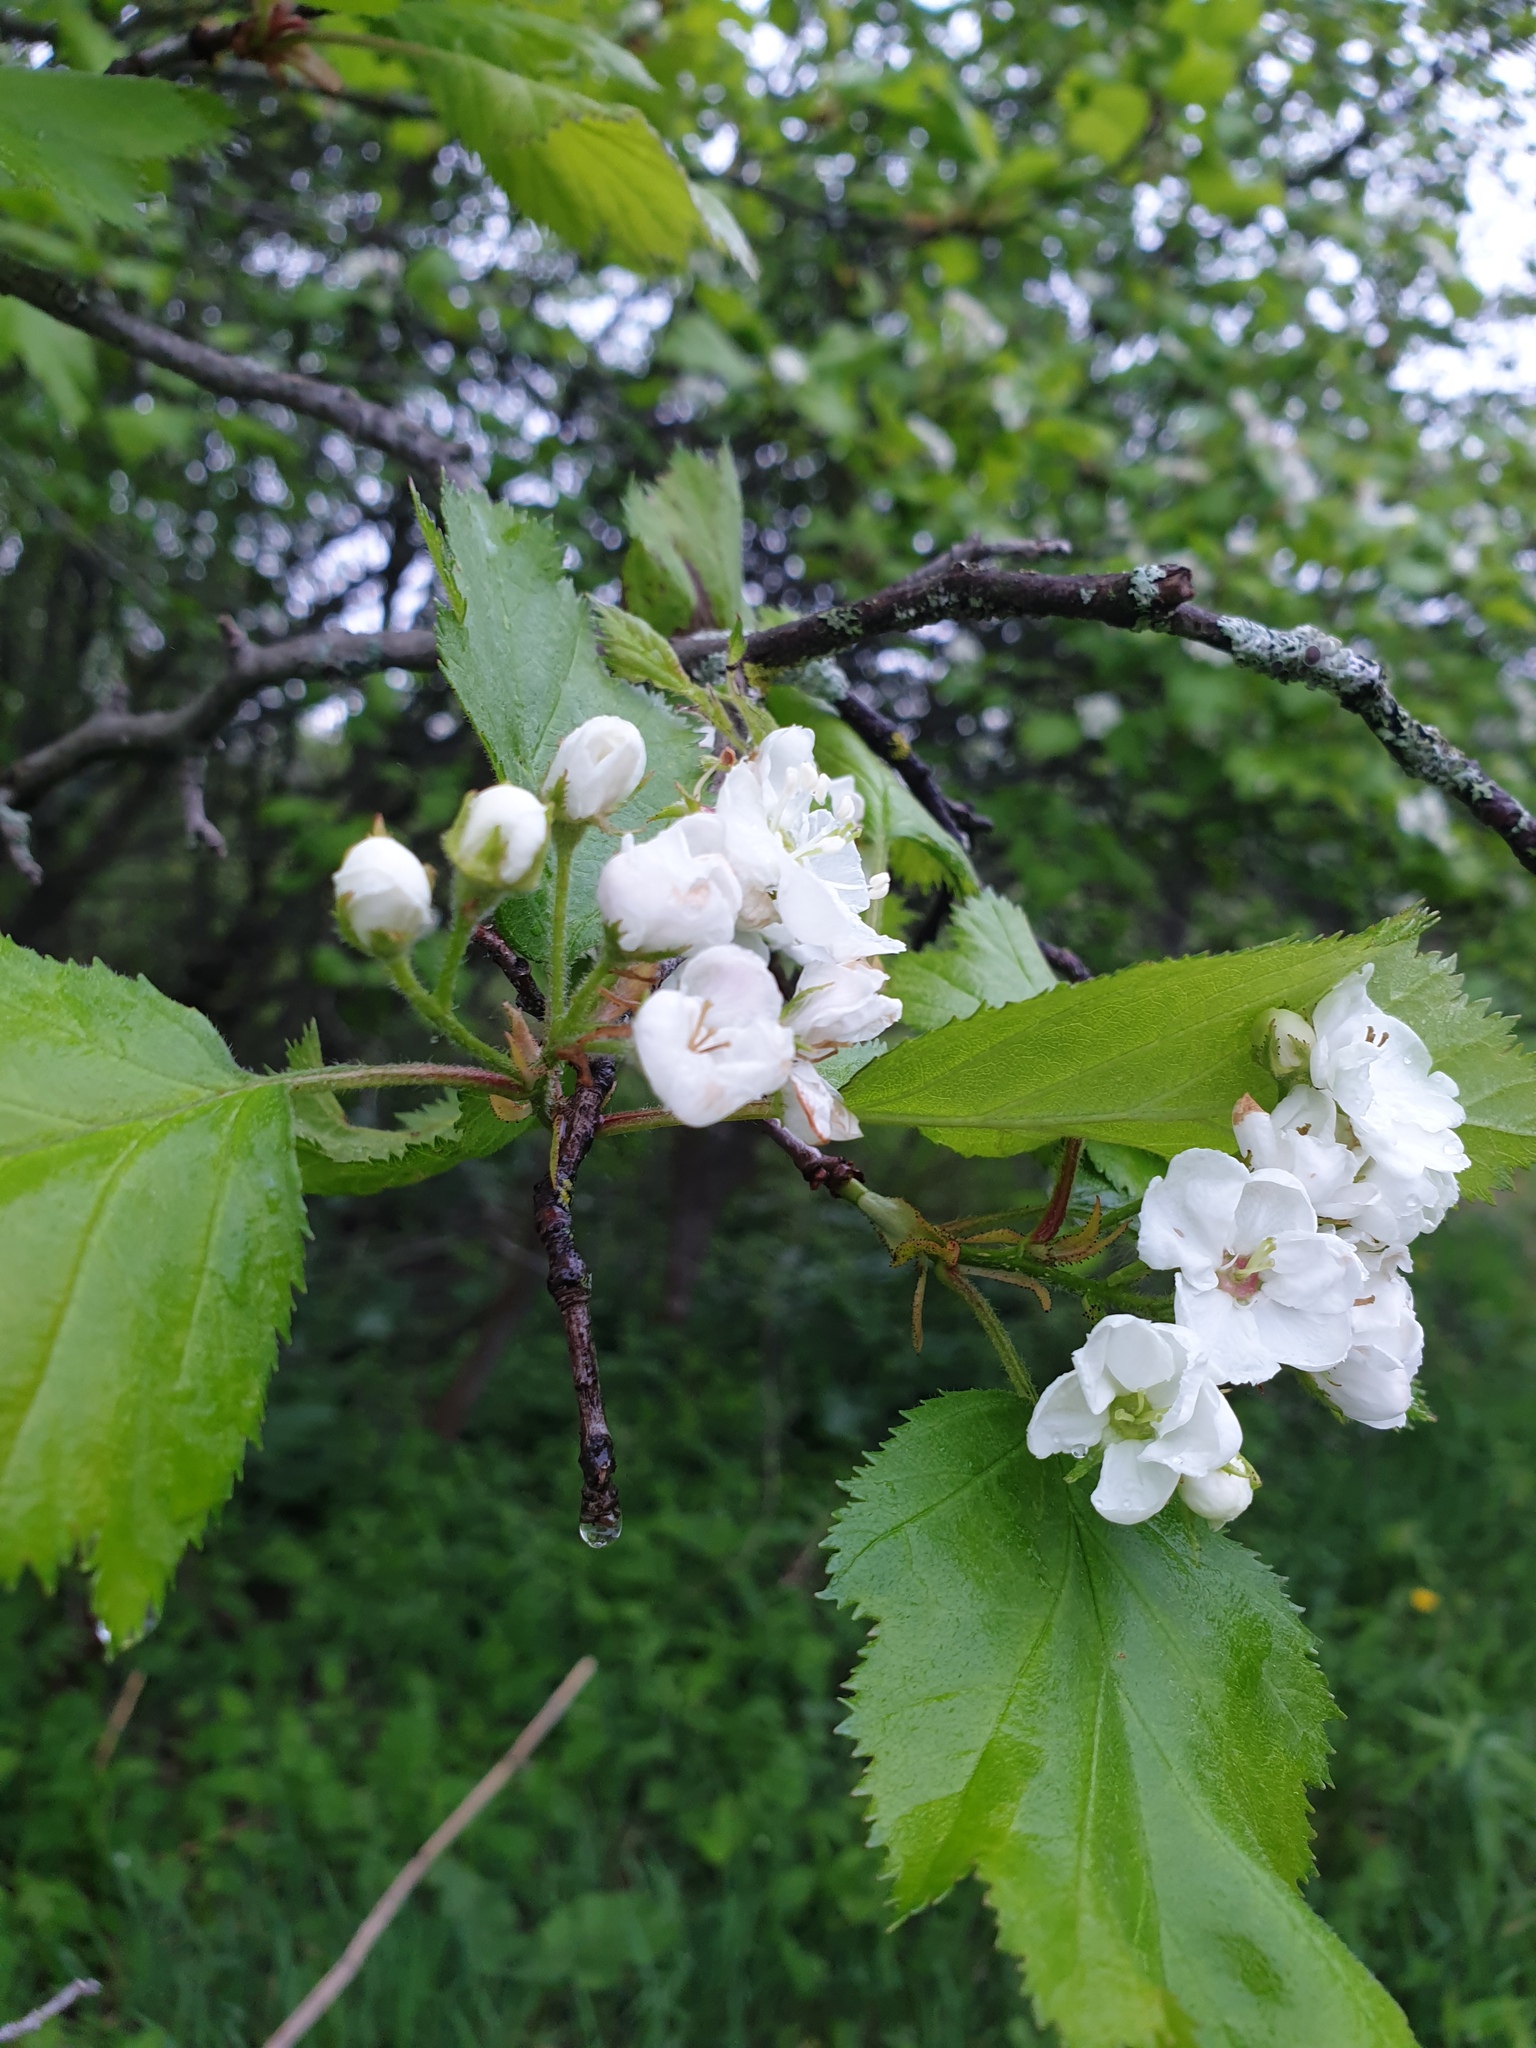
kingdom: Plantae
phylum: Tracheophyta
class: Magnoliopsida
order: Rosales
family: Rosaceae
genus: Crataegus
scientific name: Crataegus submollis
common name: Hairy cockspurthorn
